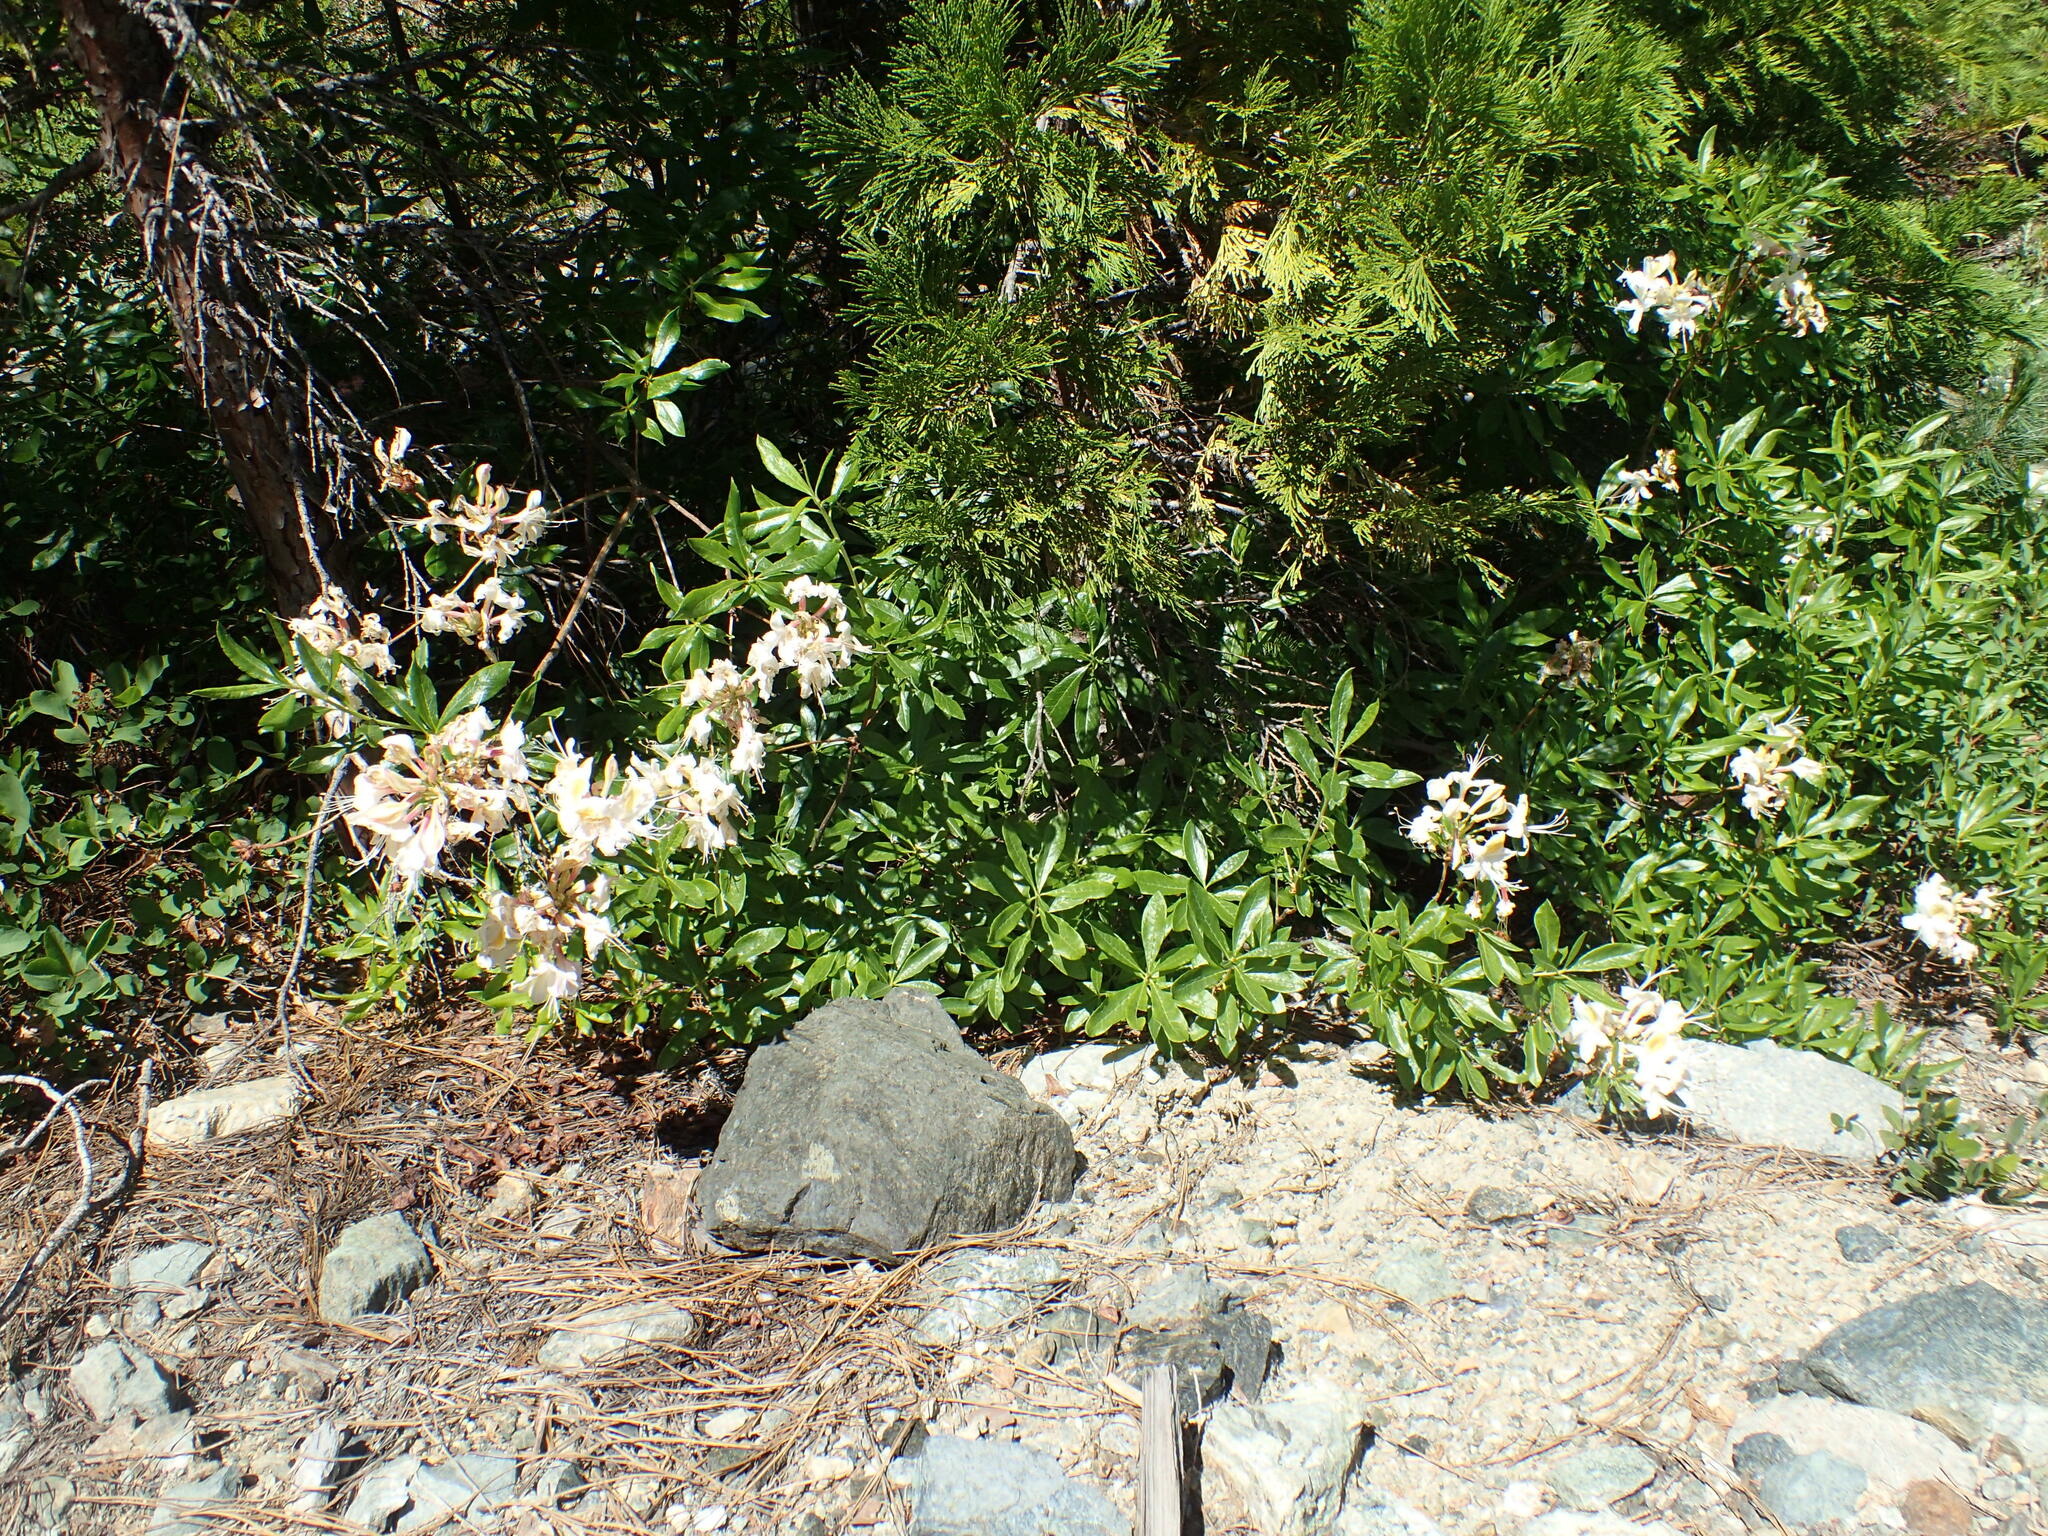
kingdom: Plantae
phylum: Tracheophyta
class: Magnoliopsida
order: Ericales
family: Ericaceae
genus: Rhododendron
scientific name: Rhododendron occidentale
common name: Western azalea
